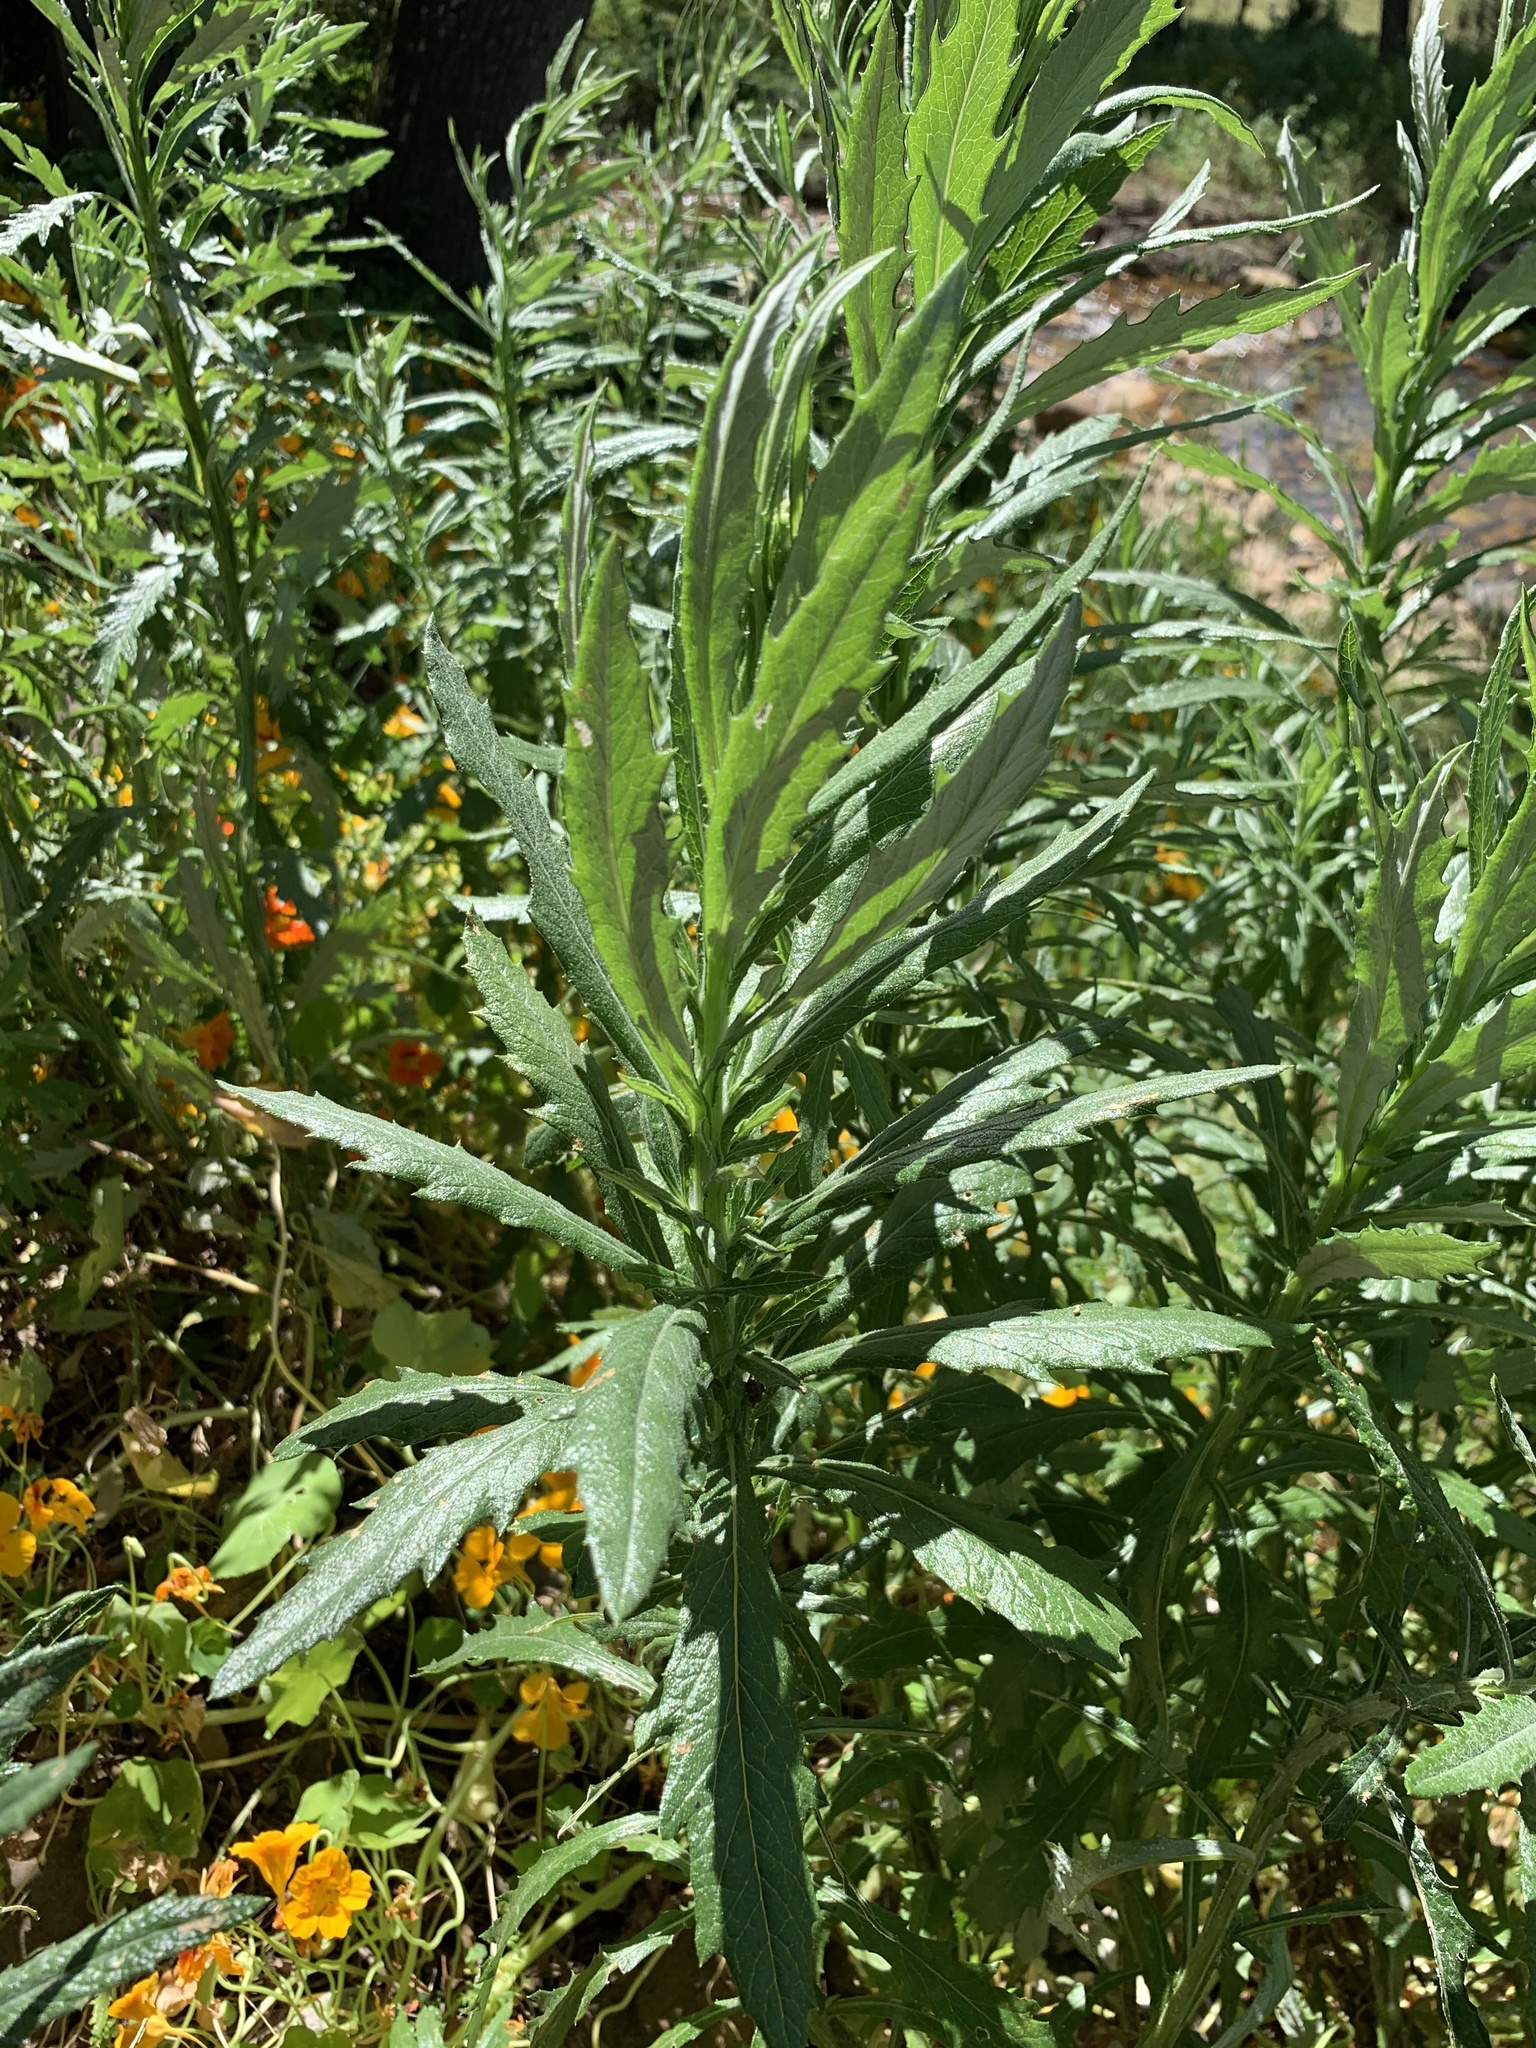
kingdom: Plantae
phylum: Tracheophyta
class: Magnoliopsida
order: Asterales
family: Asteraceae
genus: Senecio
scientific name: Senecio pterophorus
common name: Shoddy ragwort
